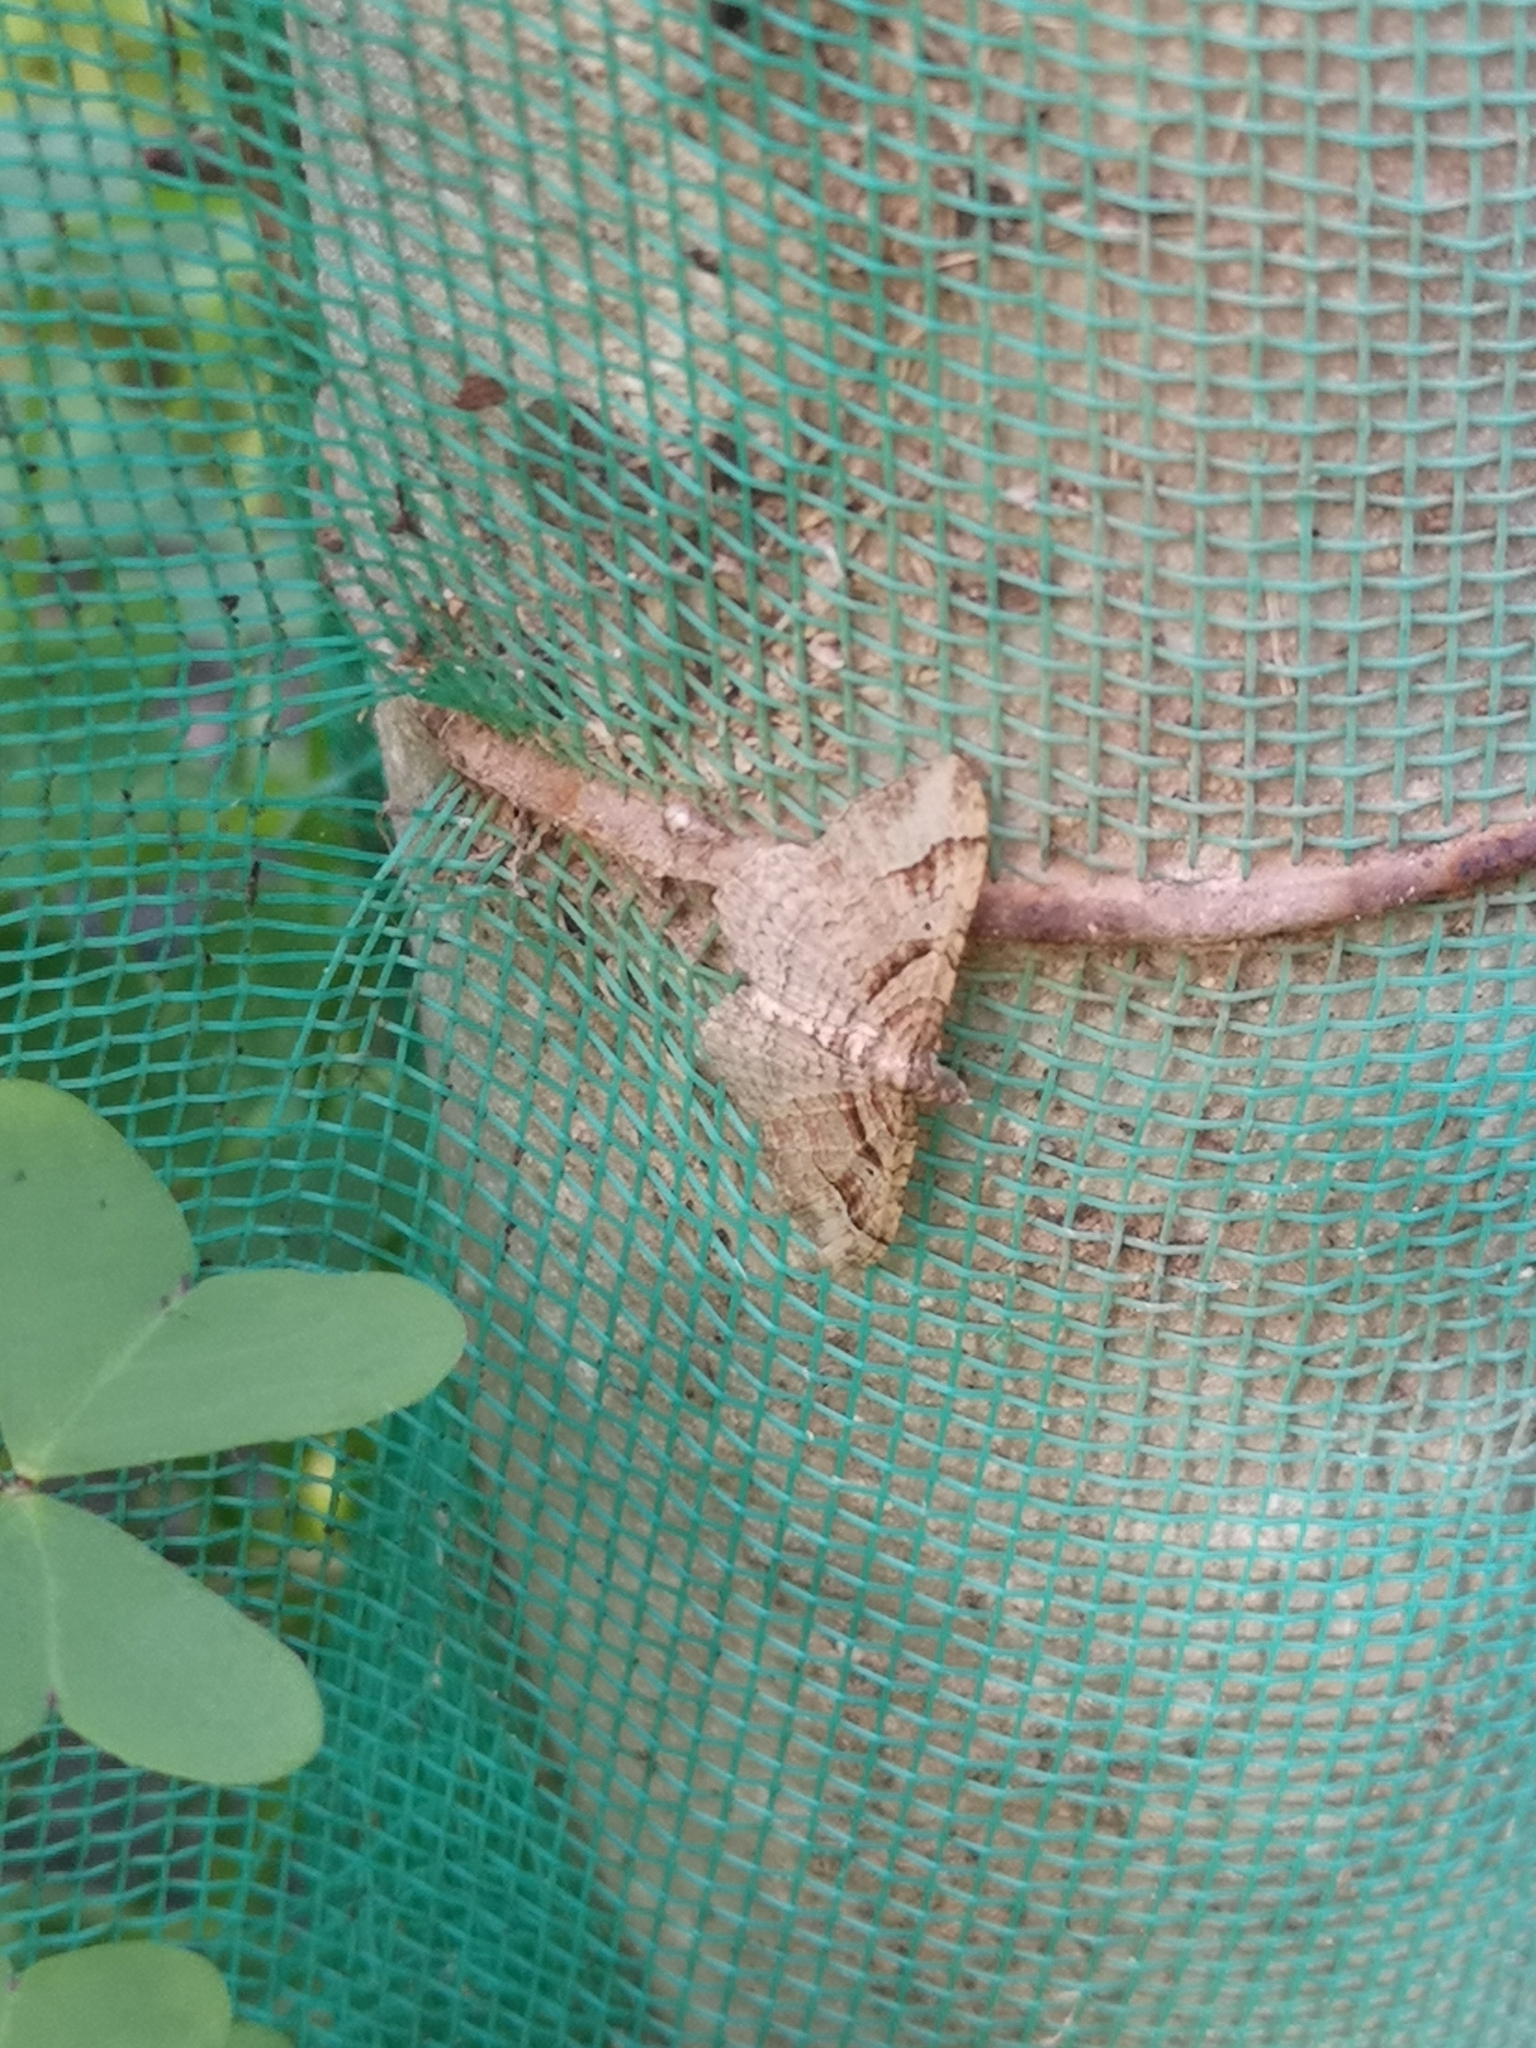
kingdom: Animalia
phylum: Arthropoda
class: Insecta
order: Lepidoptera
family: Geometridae
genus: Costaconvexa
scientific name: Costaconvexa centrostrigaria
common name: Bent-line carpet
